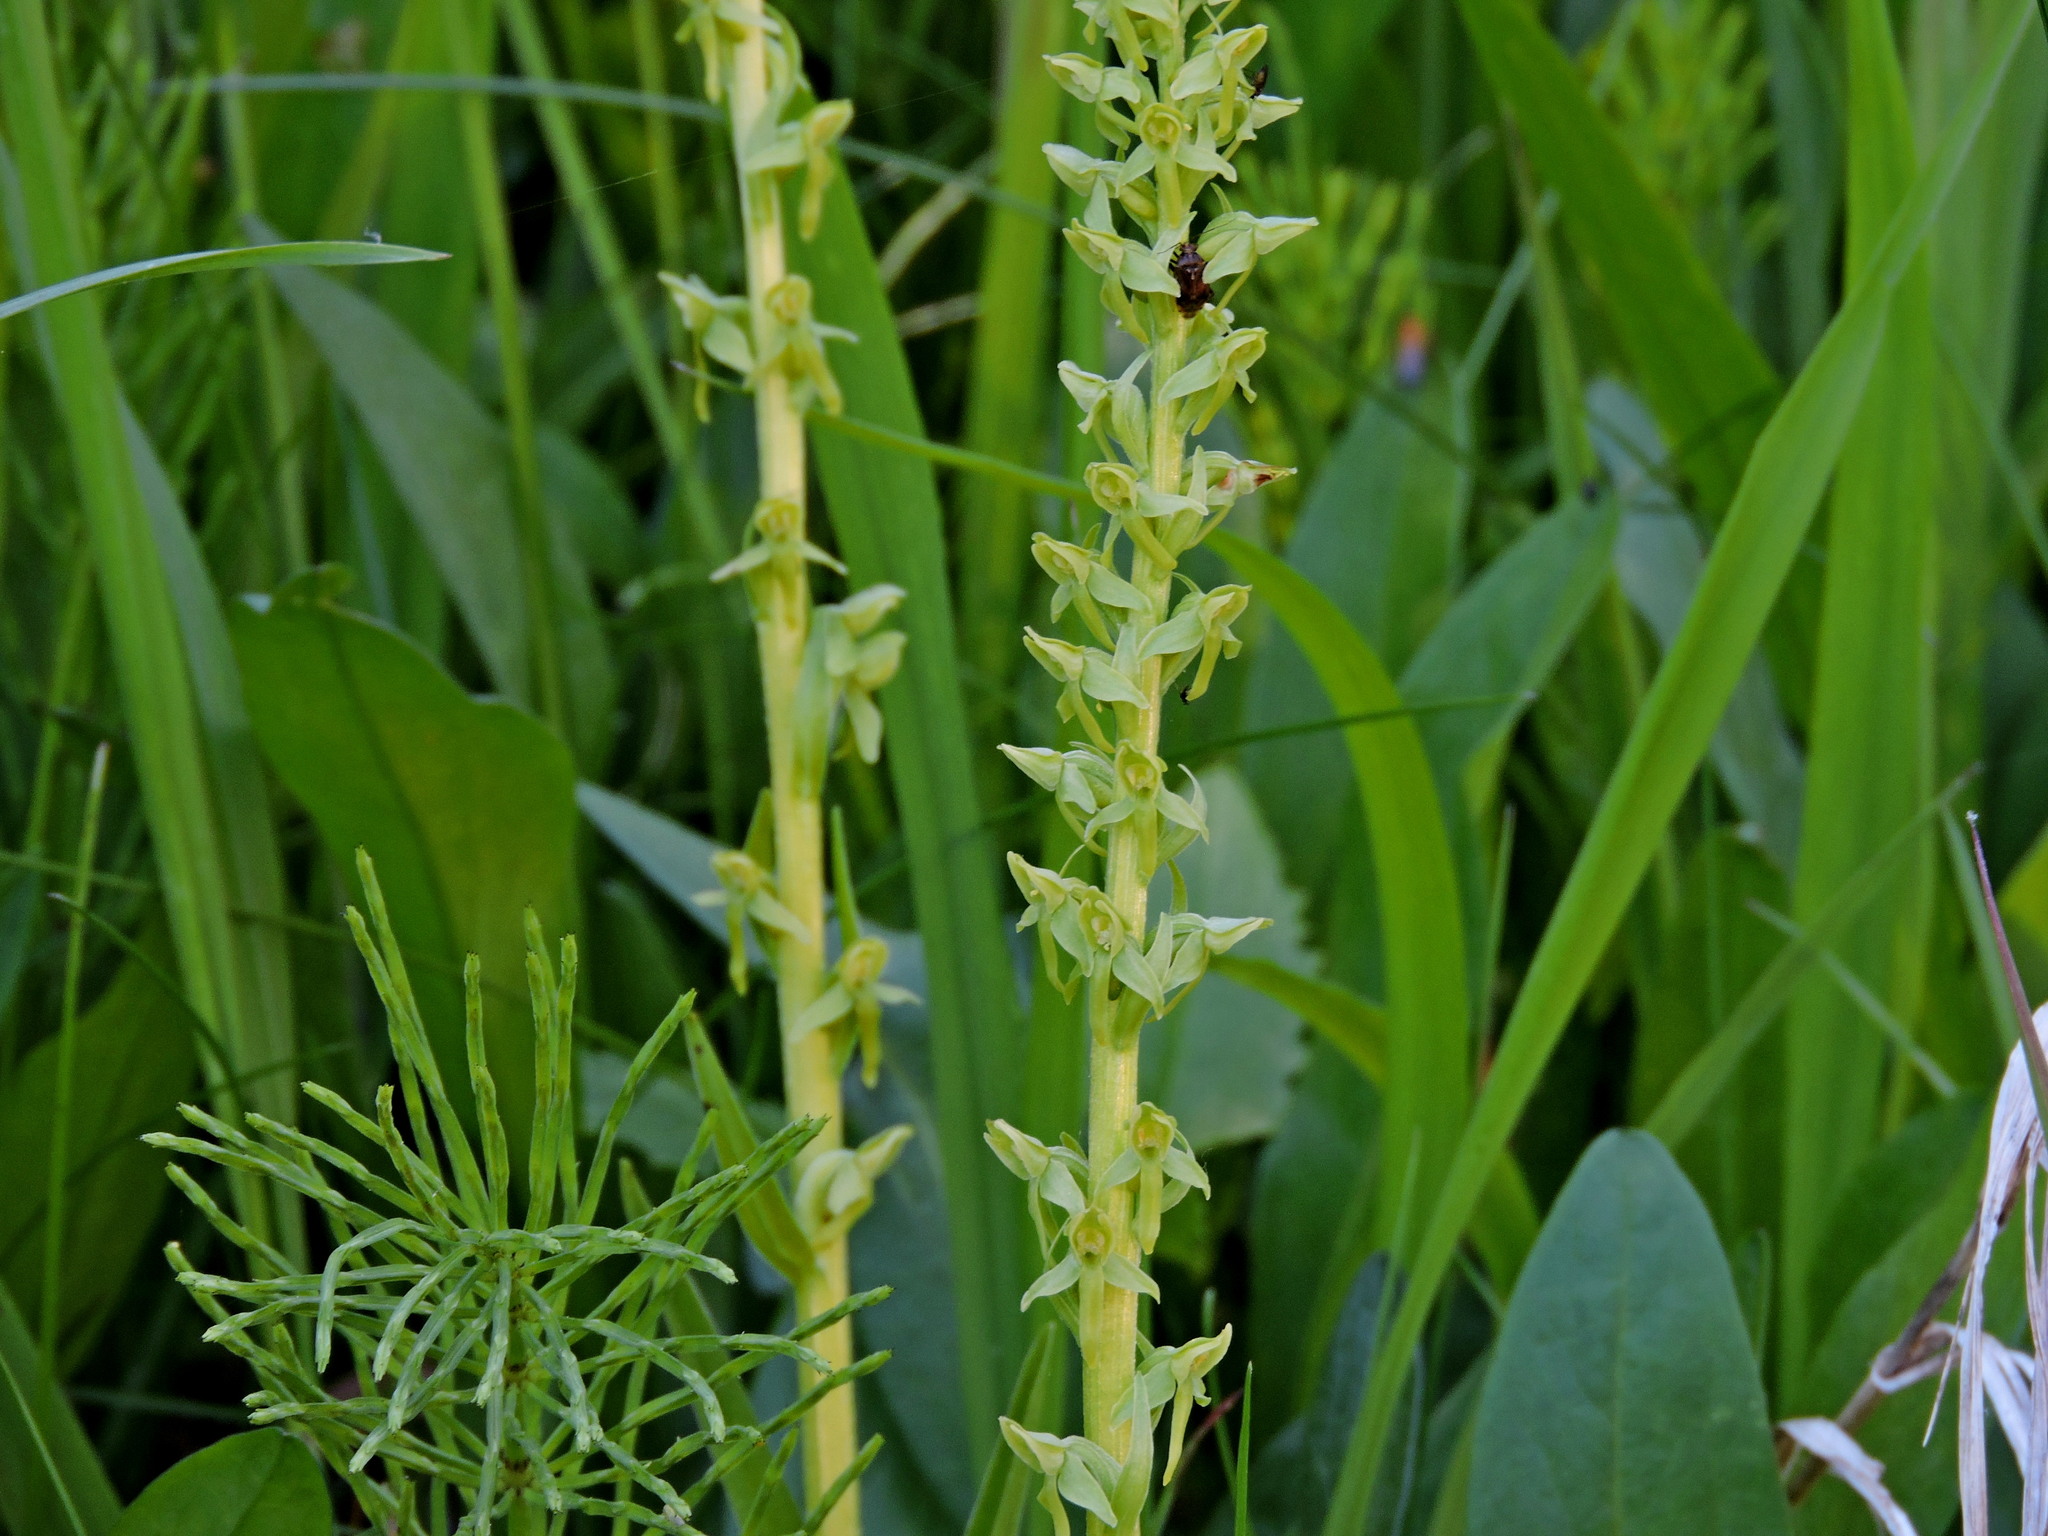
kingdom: Plantae
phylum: Tracheophyta
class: Liliopsida
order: Asparagales
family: Orchidaceae
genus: Platanthera
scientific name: Platanthera stricta
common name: Slender bog orchid
